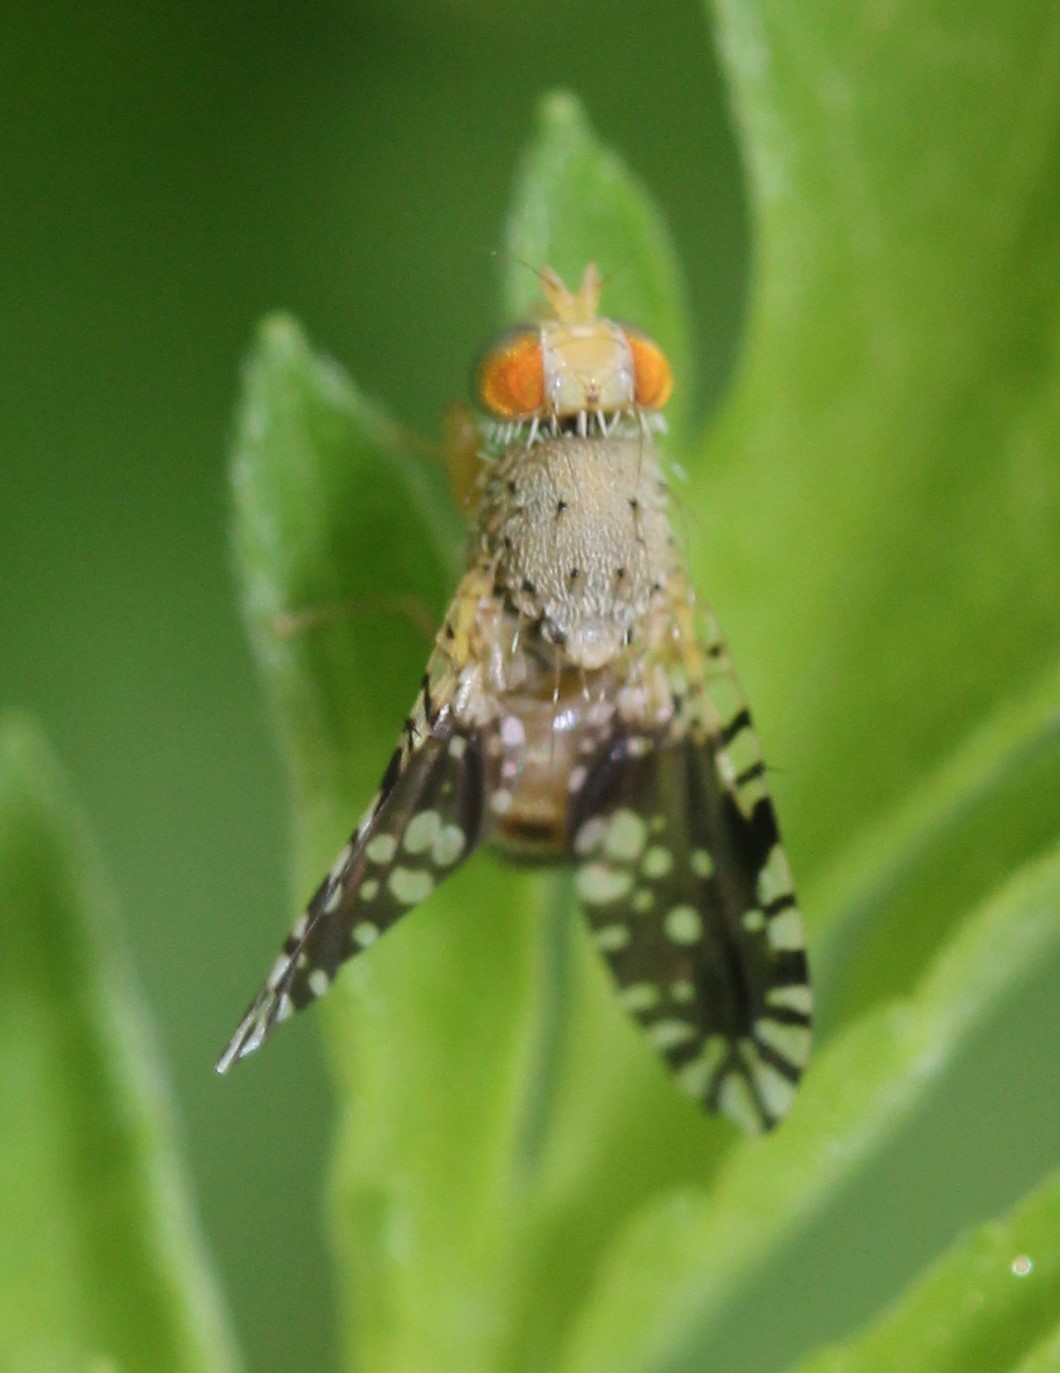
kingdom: Animalia
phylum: Arthropoda
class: Insecta
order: Diptera
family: Tephritidae
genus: Euaresta
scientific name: Euaresta bella
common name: Common ragweed fruit fly
